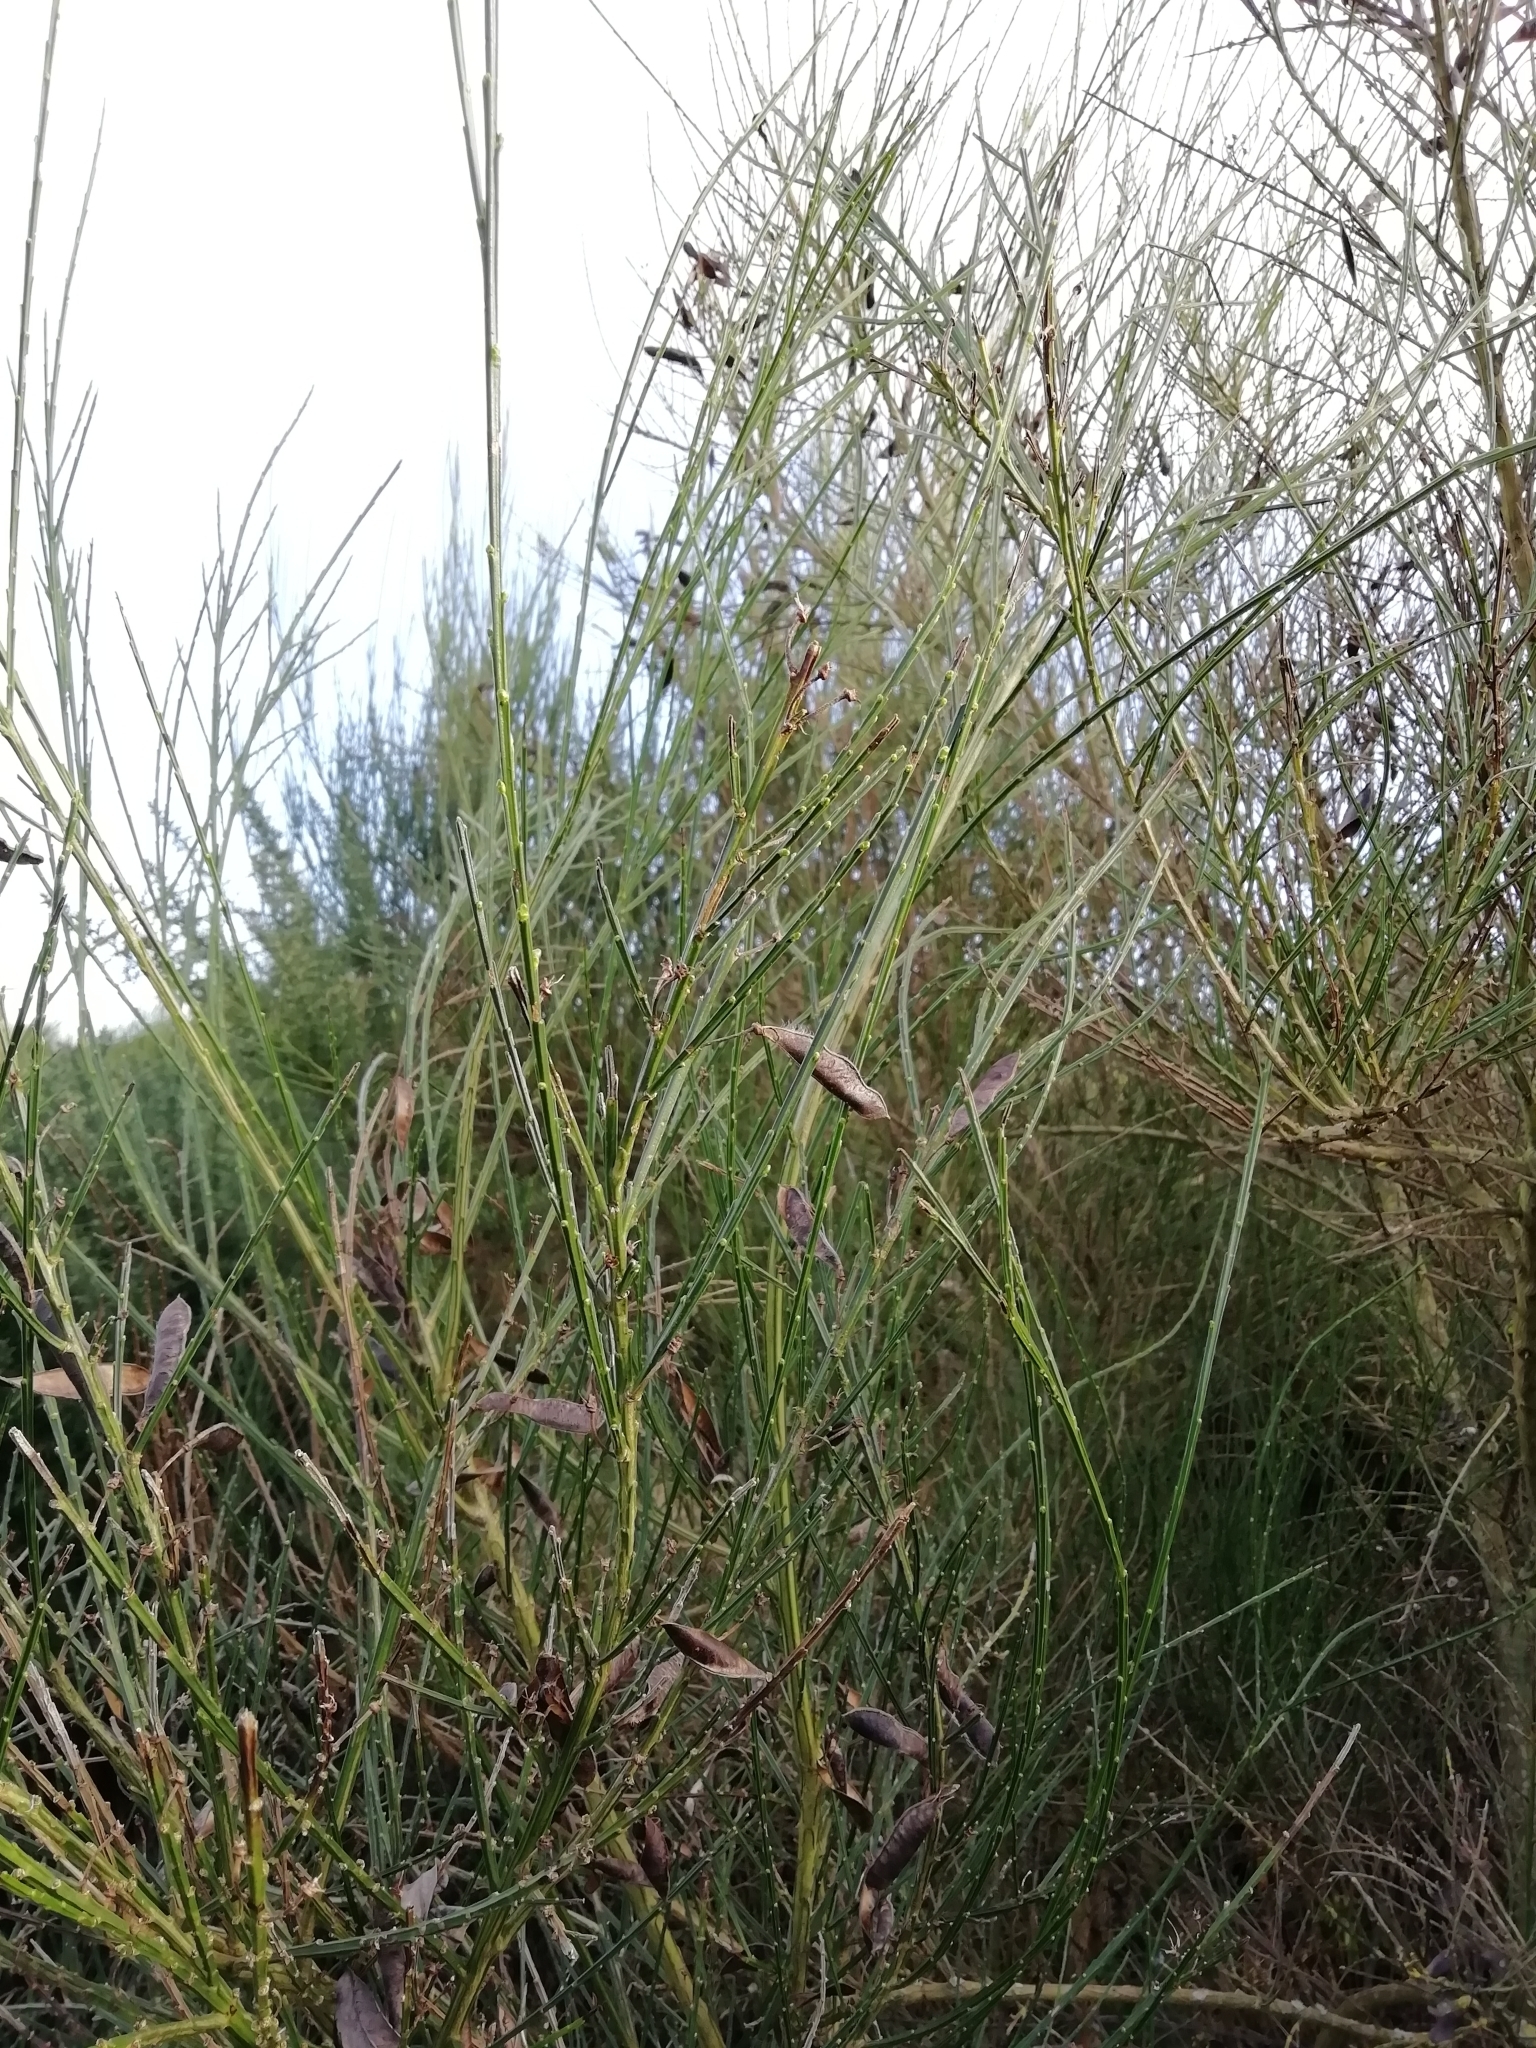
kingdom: Plantae
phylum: Tracheophyta
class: Magnoliopsida
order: Fabales
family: Fabaceae
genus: Cytisus
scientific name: Cytisus scoparius
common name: Scotch broom
